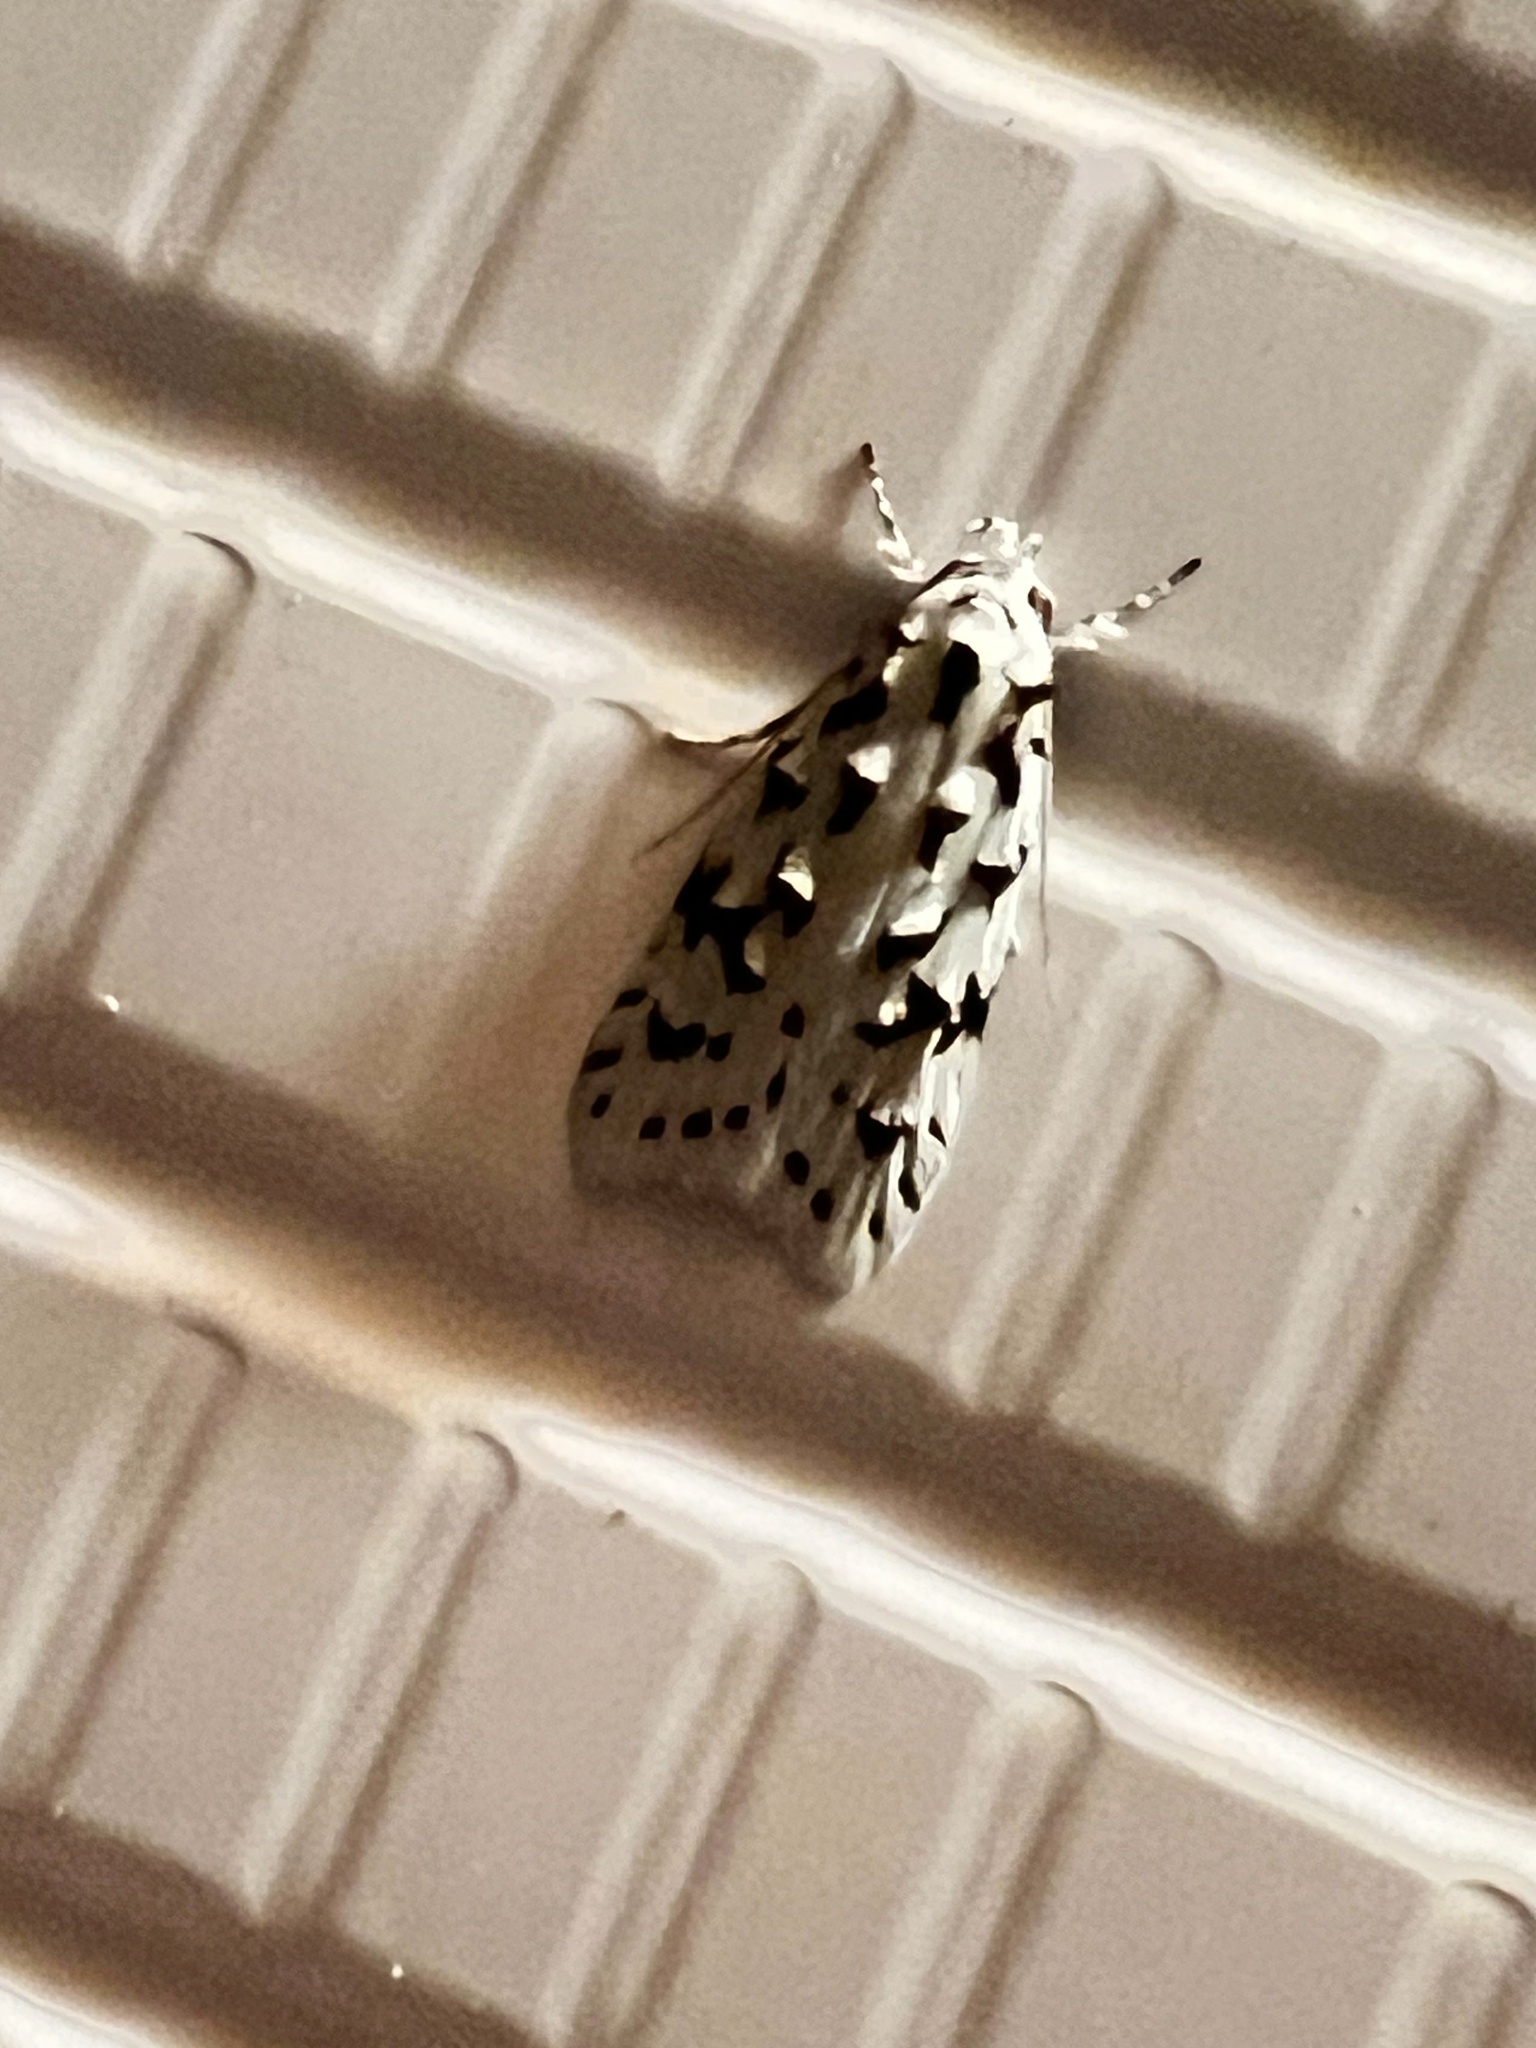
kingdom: Animalia
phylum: Arthropoda
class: Insecta
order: Lepidoptera
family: Oecophoridae
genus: Izatha
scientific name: Izatha peroneanella
